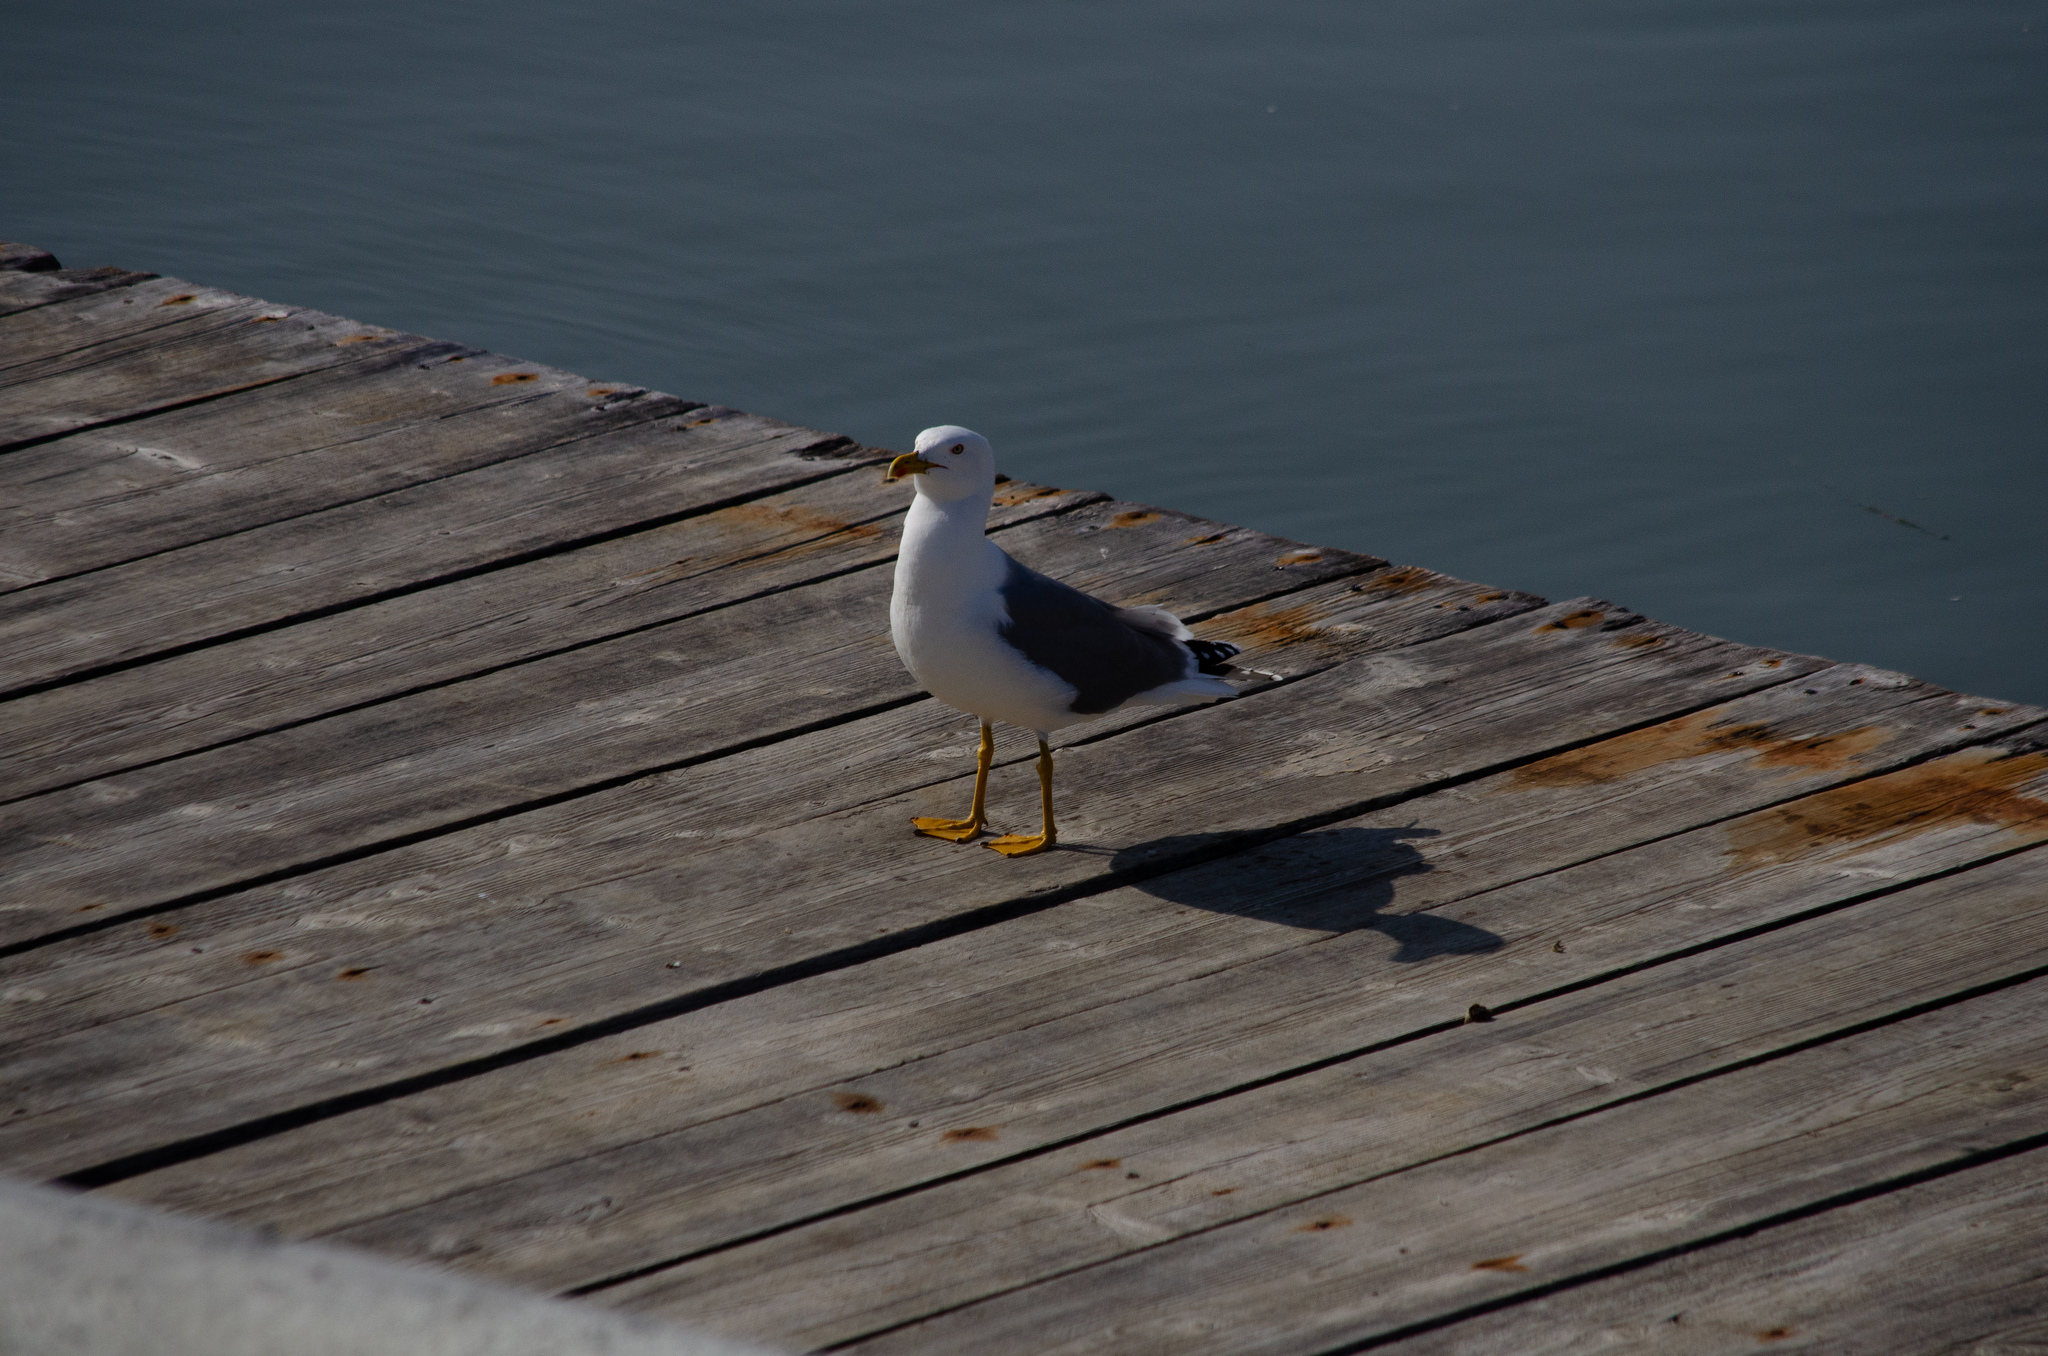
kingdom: Animalia
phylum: Chordata
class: Aves
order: Charadriiformes
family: Laridae
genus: Larus
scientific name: Larus michahellis
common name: Yellow-legged gull
